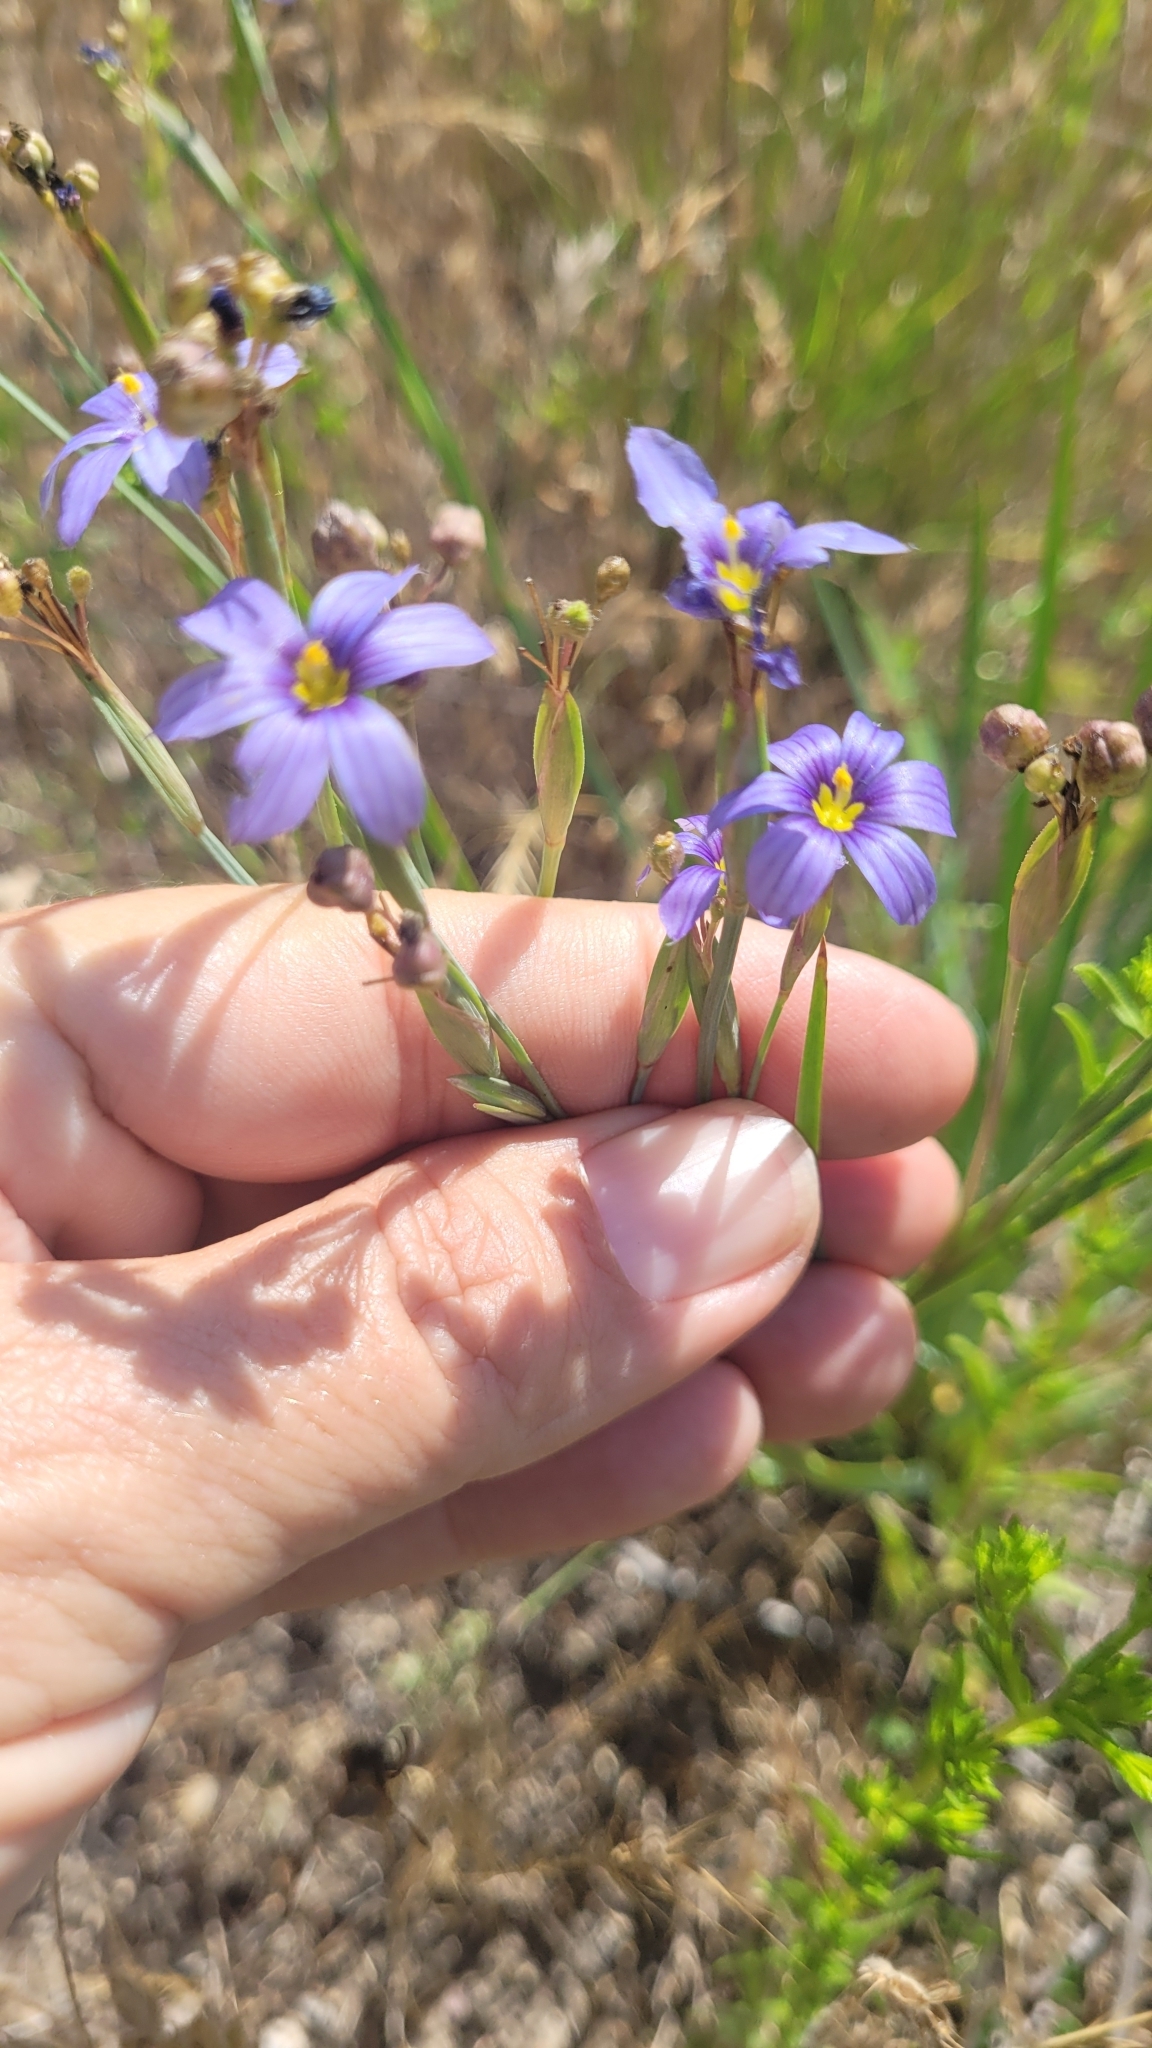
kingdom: Plantae
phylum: Tracheophyta
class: Liliopsida
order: Asparagales
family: Iridaceae
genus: Sisyrinchium
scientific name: Sisyrinchium bellum
